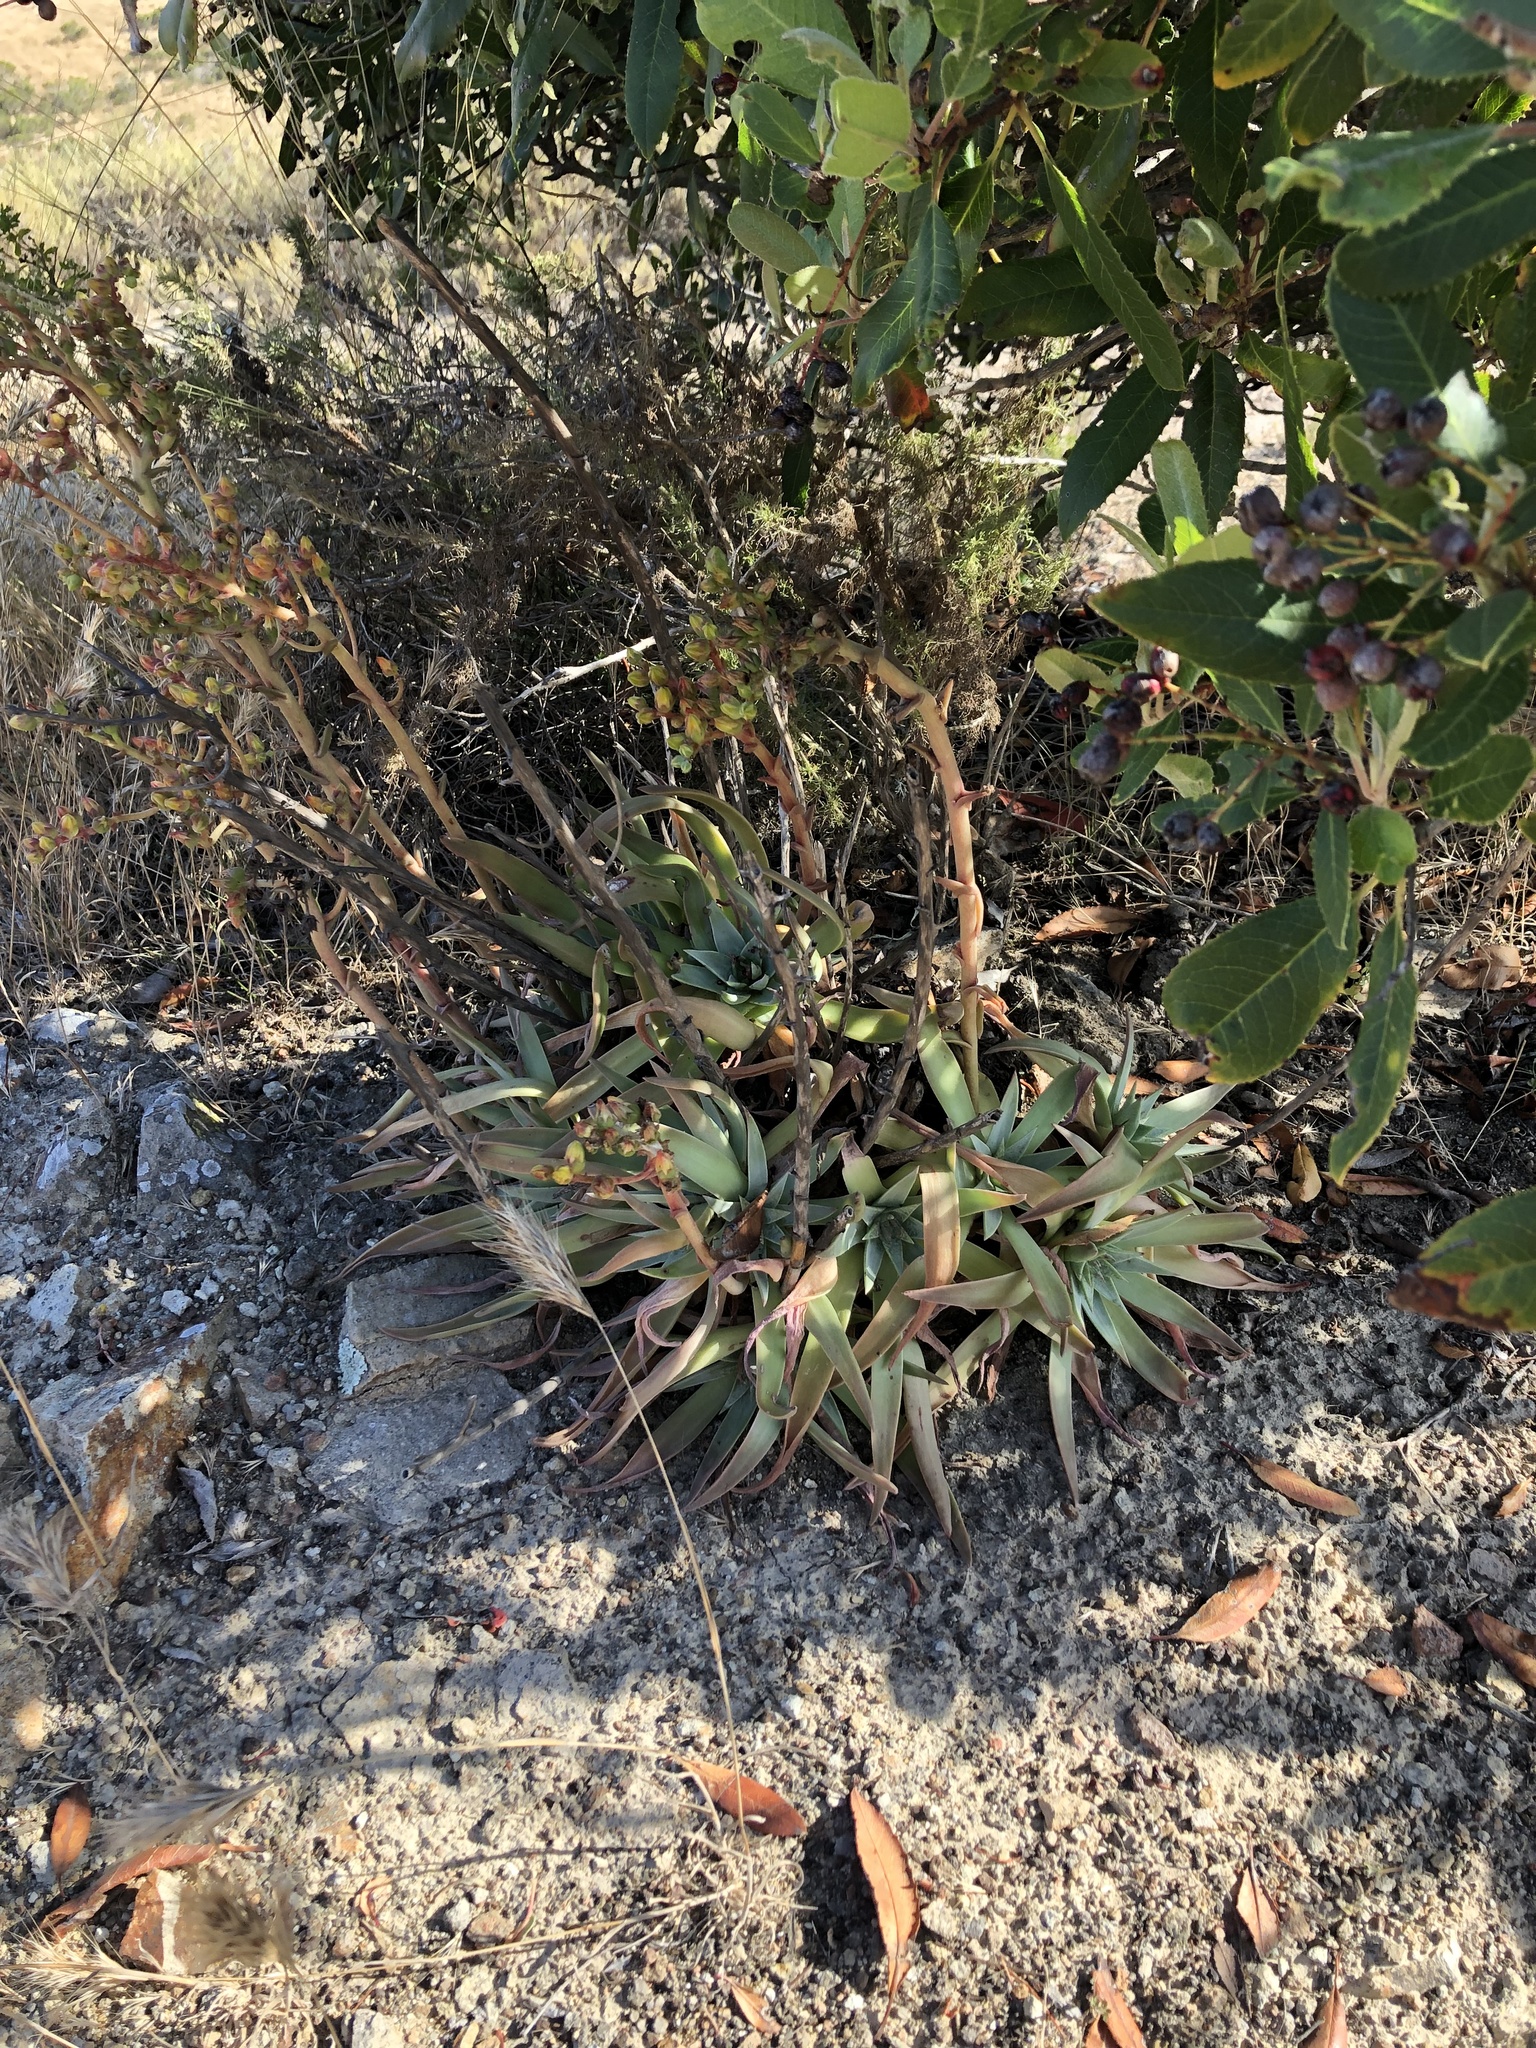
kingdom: Plantae
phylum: Tracheophyta
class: Magnoliopsida
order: Saxifragales
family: Crassulaceae
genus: Dudleya
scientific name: Dudleya lanceolata
